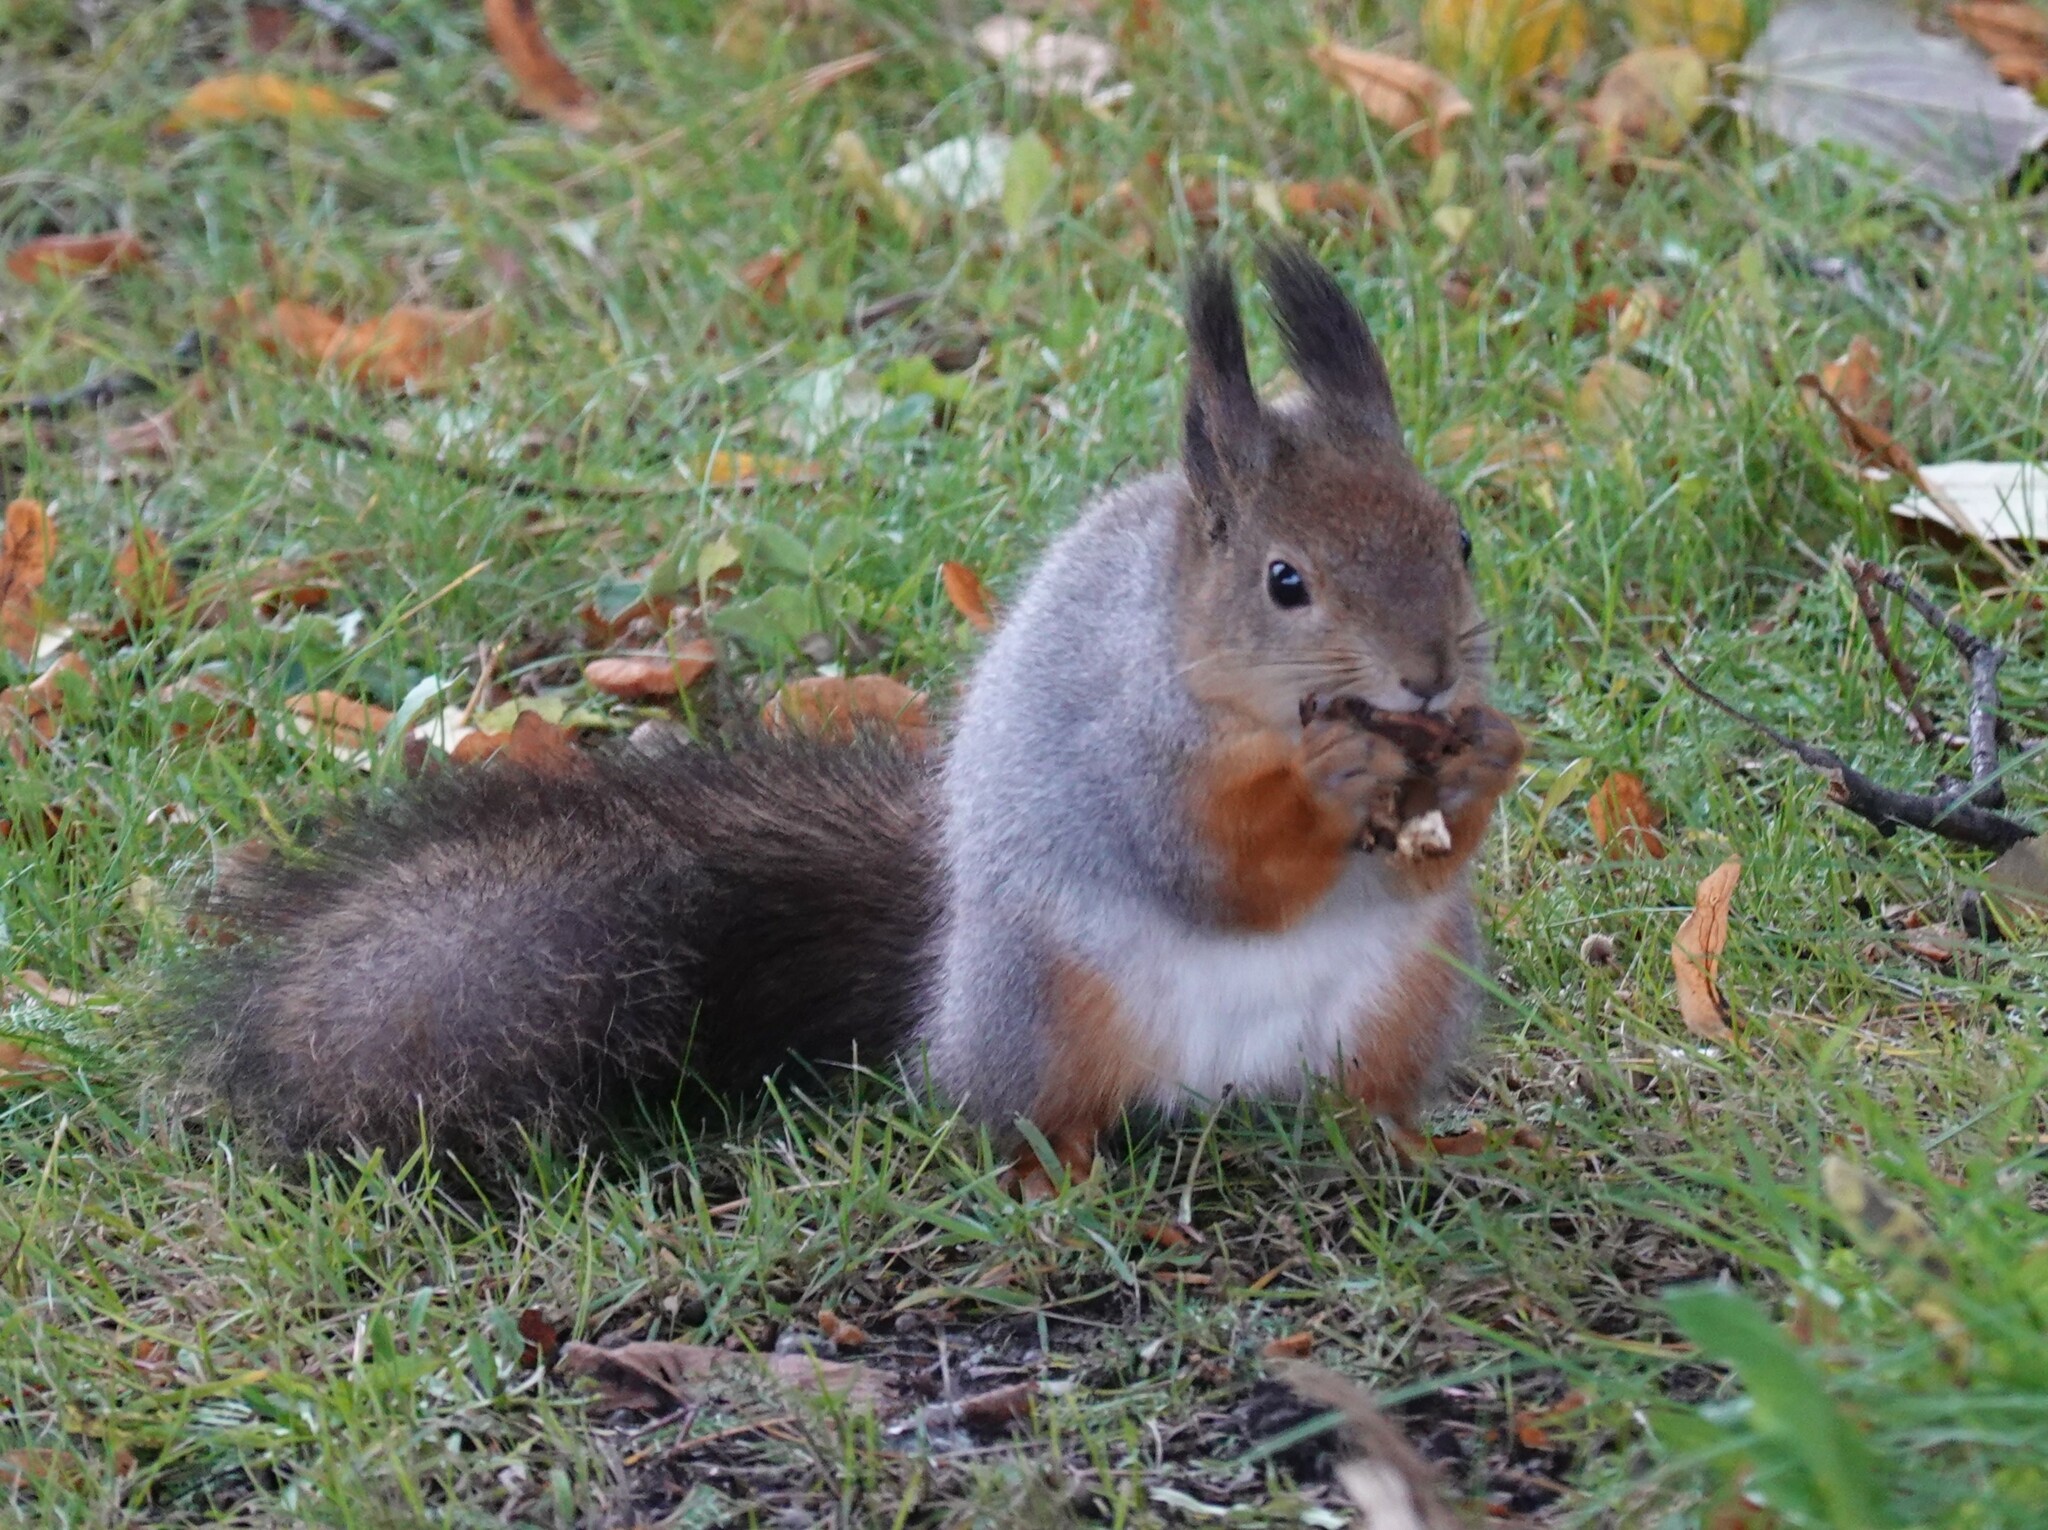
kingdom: Animalia
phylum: Chordata
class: Mammalia
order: Rodentia
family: Sciuridae
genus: Sciurus
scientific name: Sciurus vulgaris
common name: Eurasian red squirrel
